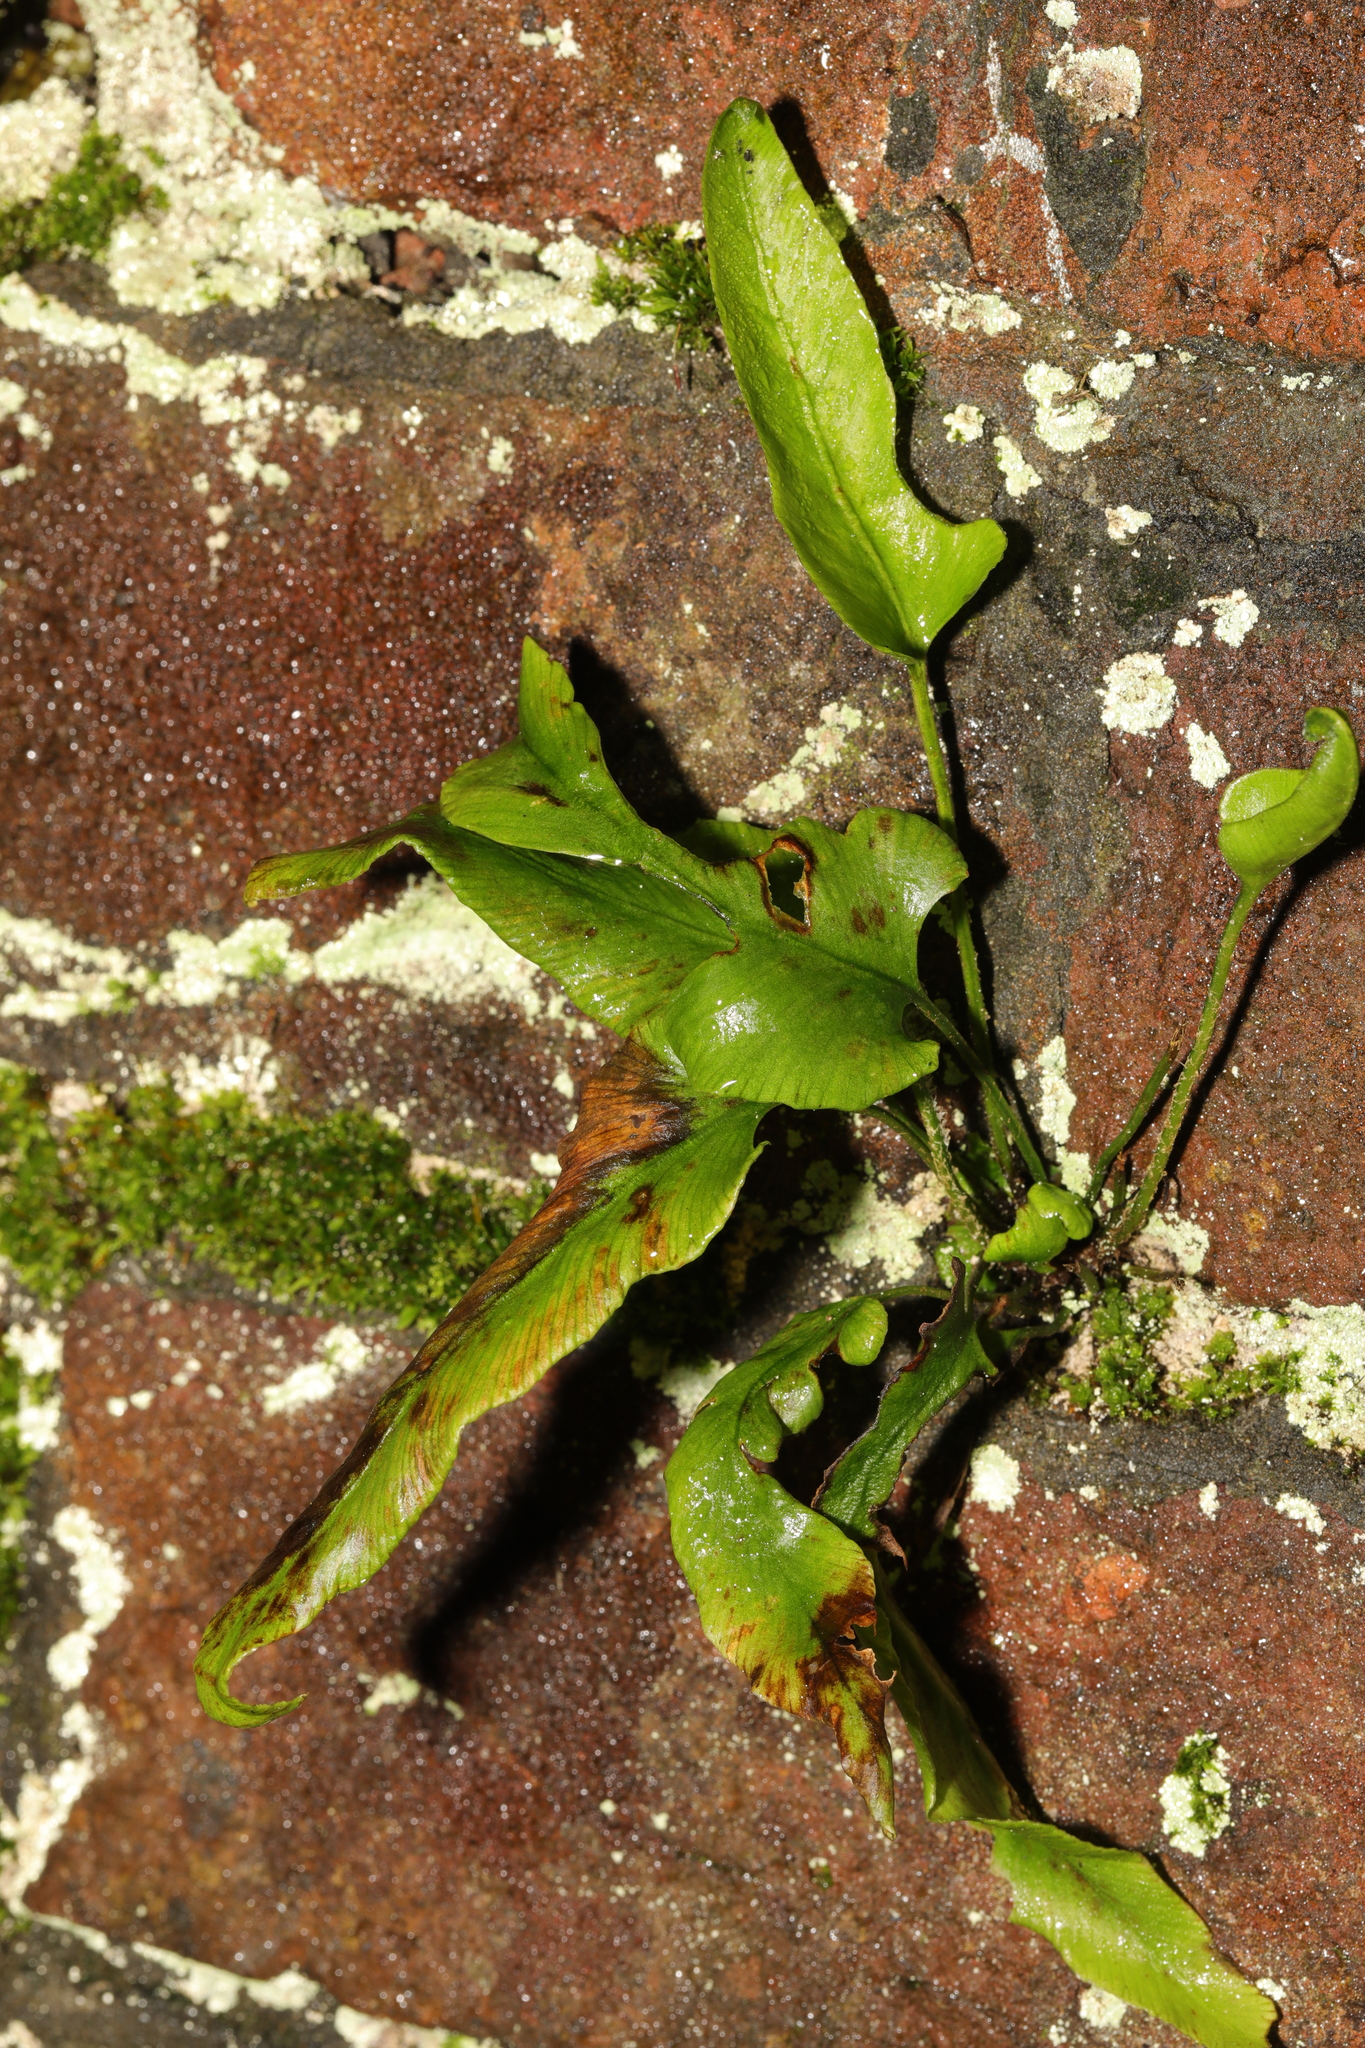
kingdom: Plantae
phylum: Tracheophyta
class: Polypodiopsida
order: Polypodiales
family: Aspleniaceae
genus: Asplenium
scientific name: Asplenium scolopendrium
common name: Hart's-tongue fern
